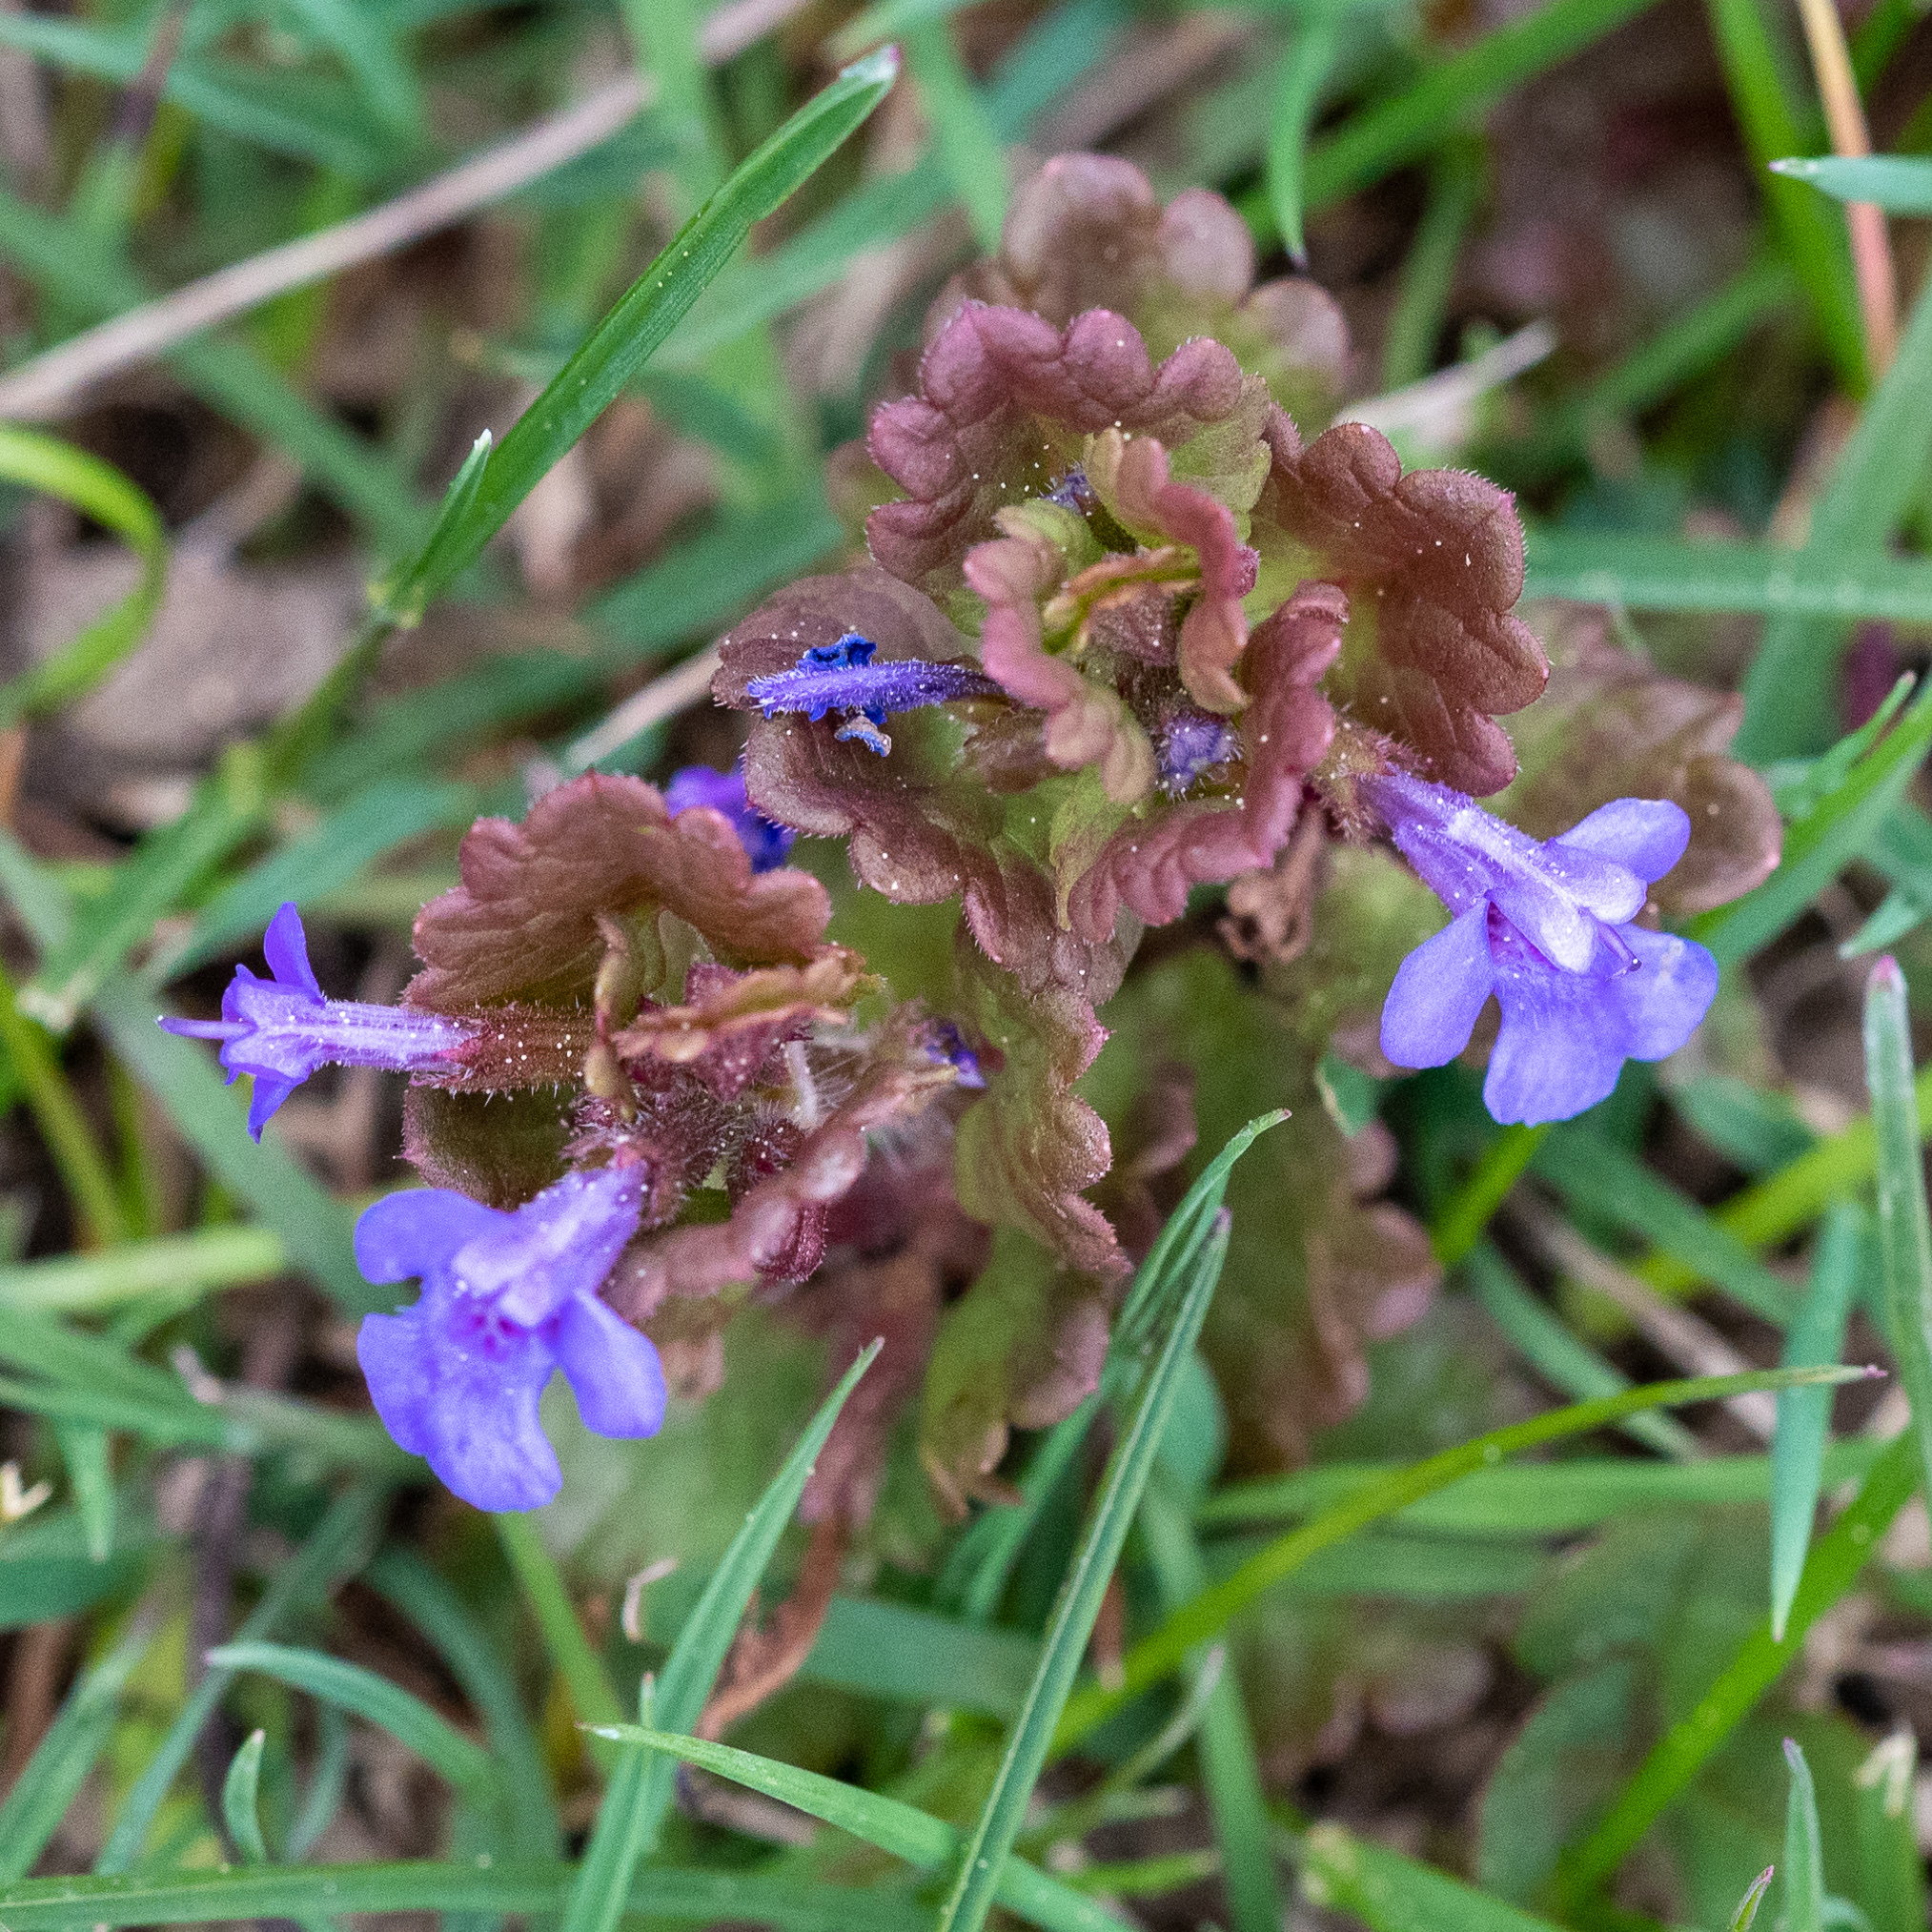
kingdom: Plantae
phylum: Tracheophyta
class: Magnoliopsida
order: Lamiales
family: Lamiaceae
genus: Glechoma
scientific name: Glechoma hederacea
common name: Ground ivy
